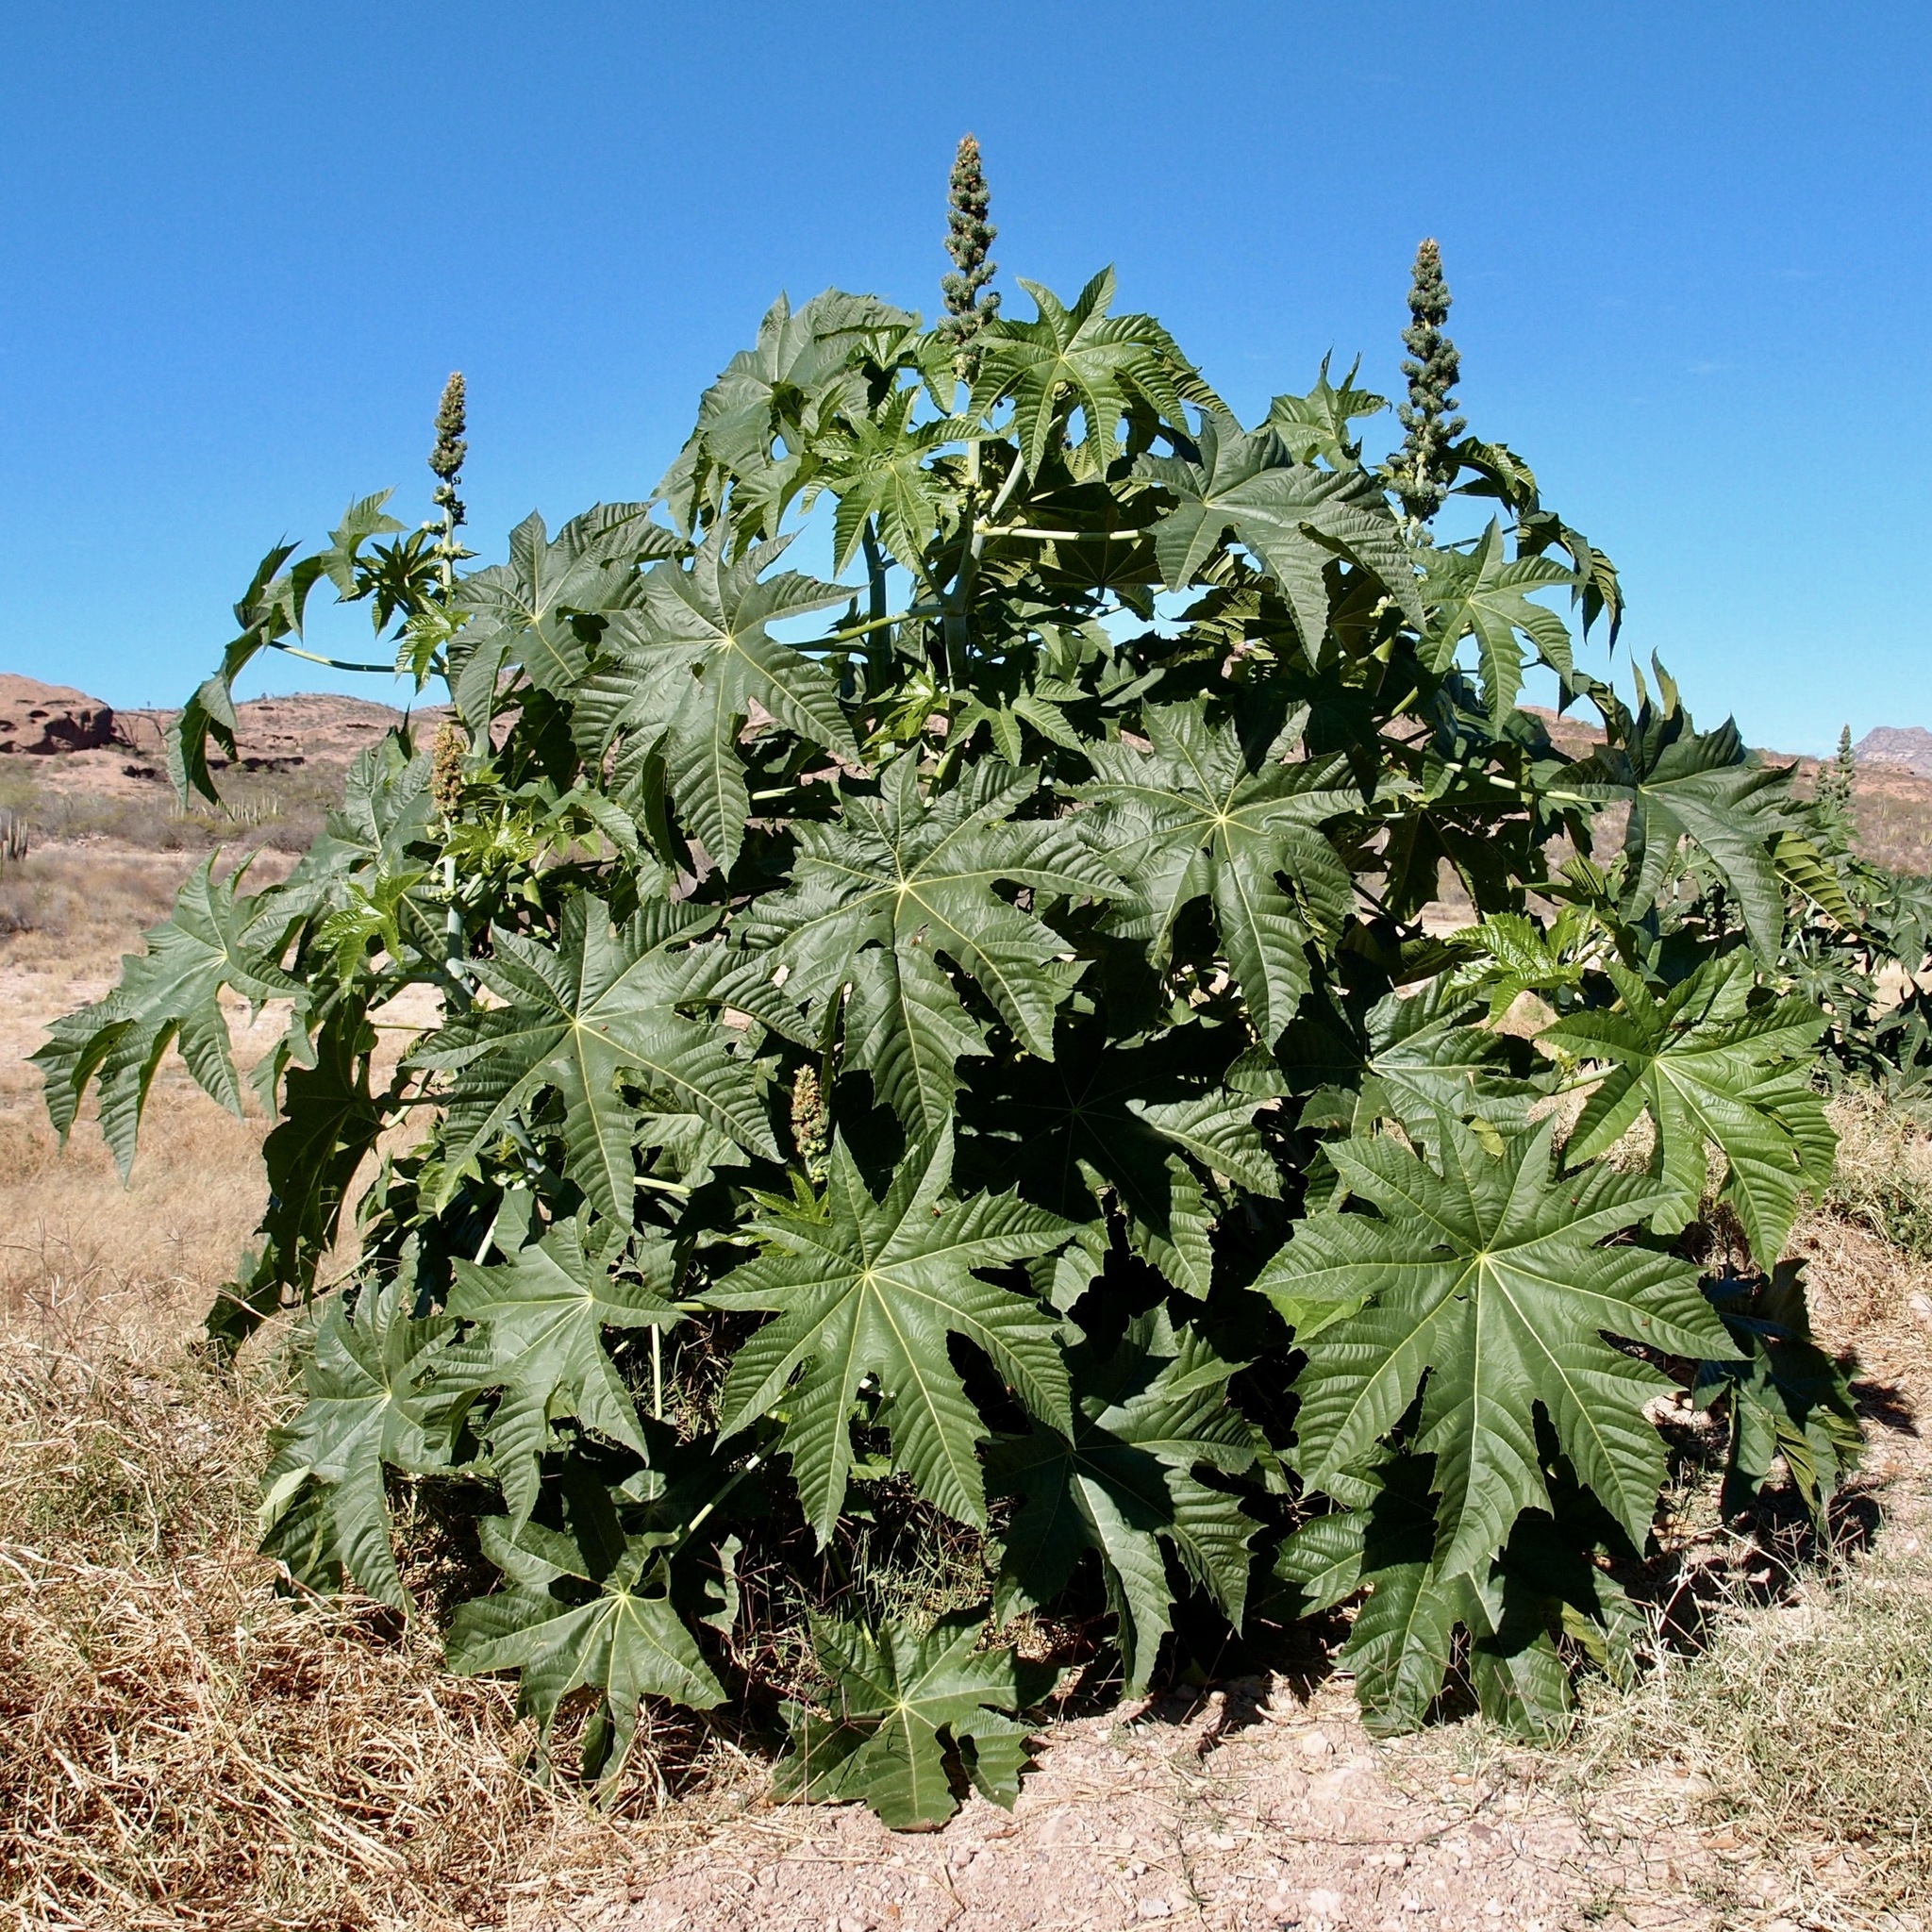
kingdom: Plantae
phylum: Tracheophyta
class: Magnoliopsida
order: Malpighiales
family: Euphorbiaceae
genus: Ricinus
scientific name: Ricinus communis
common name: Castor-oil-plant
